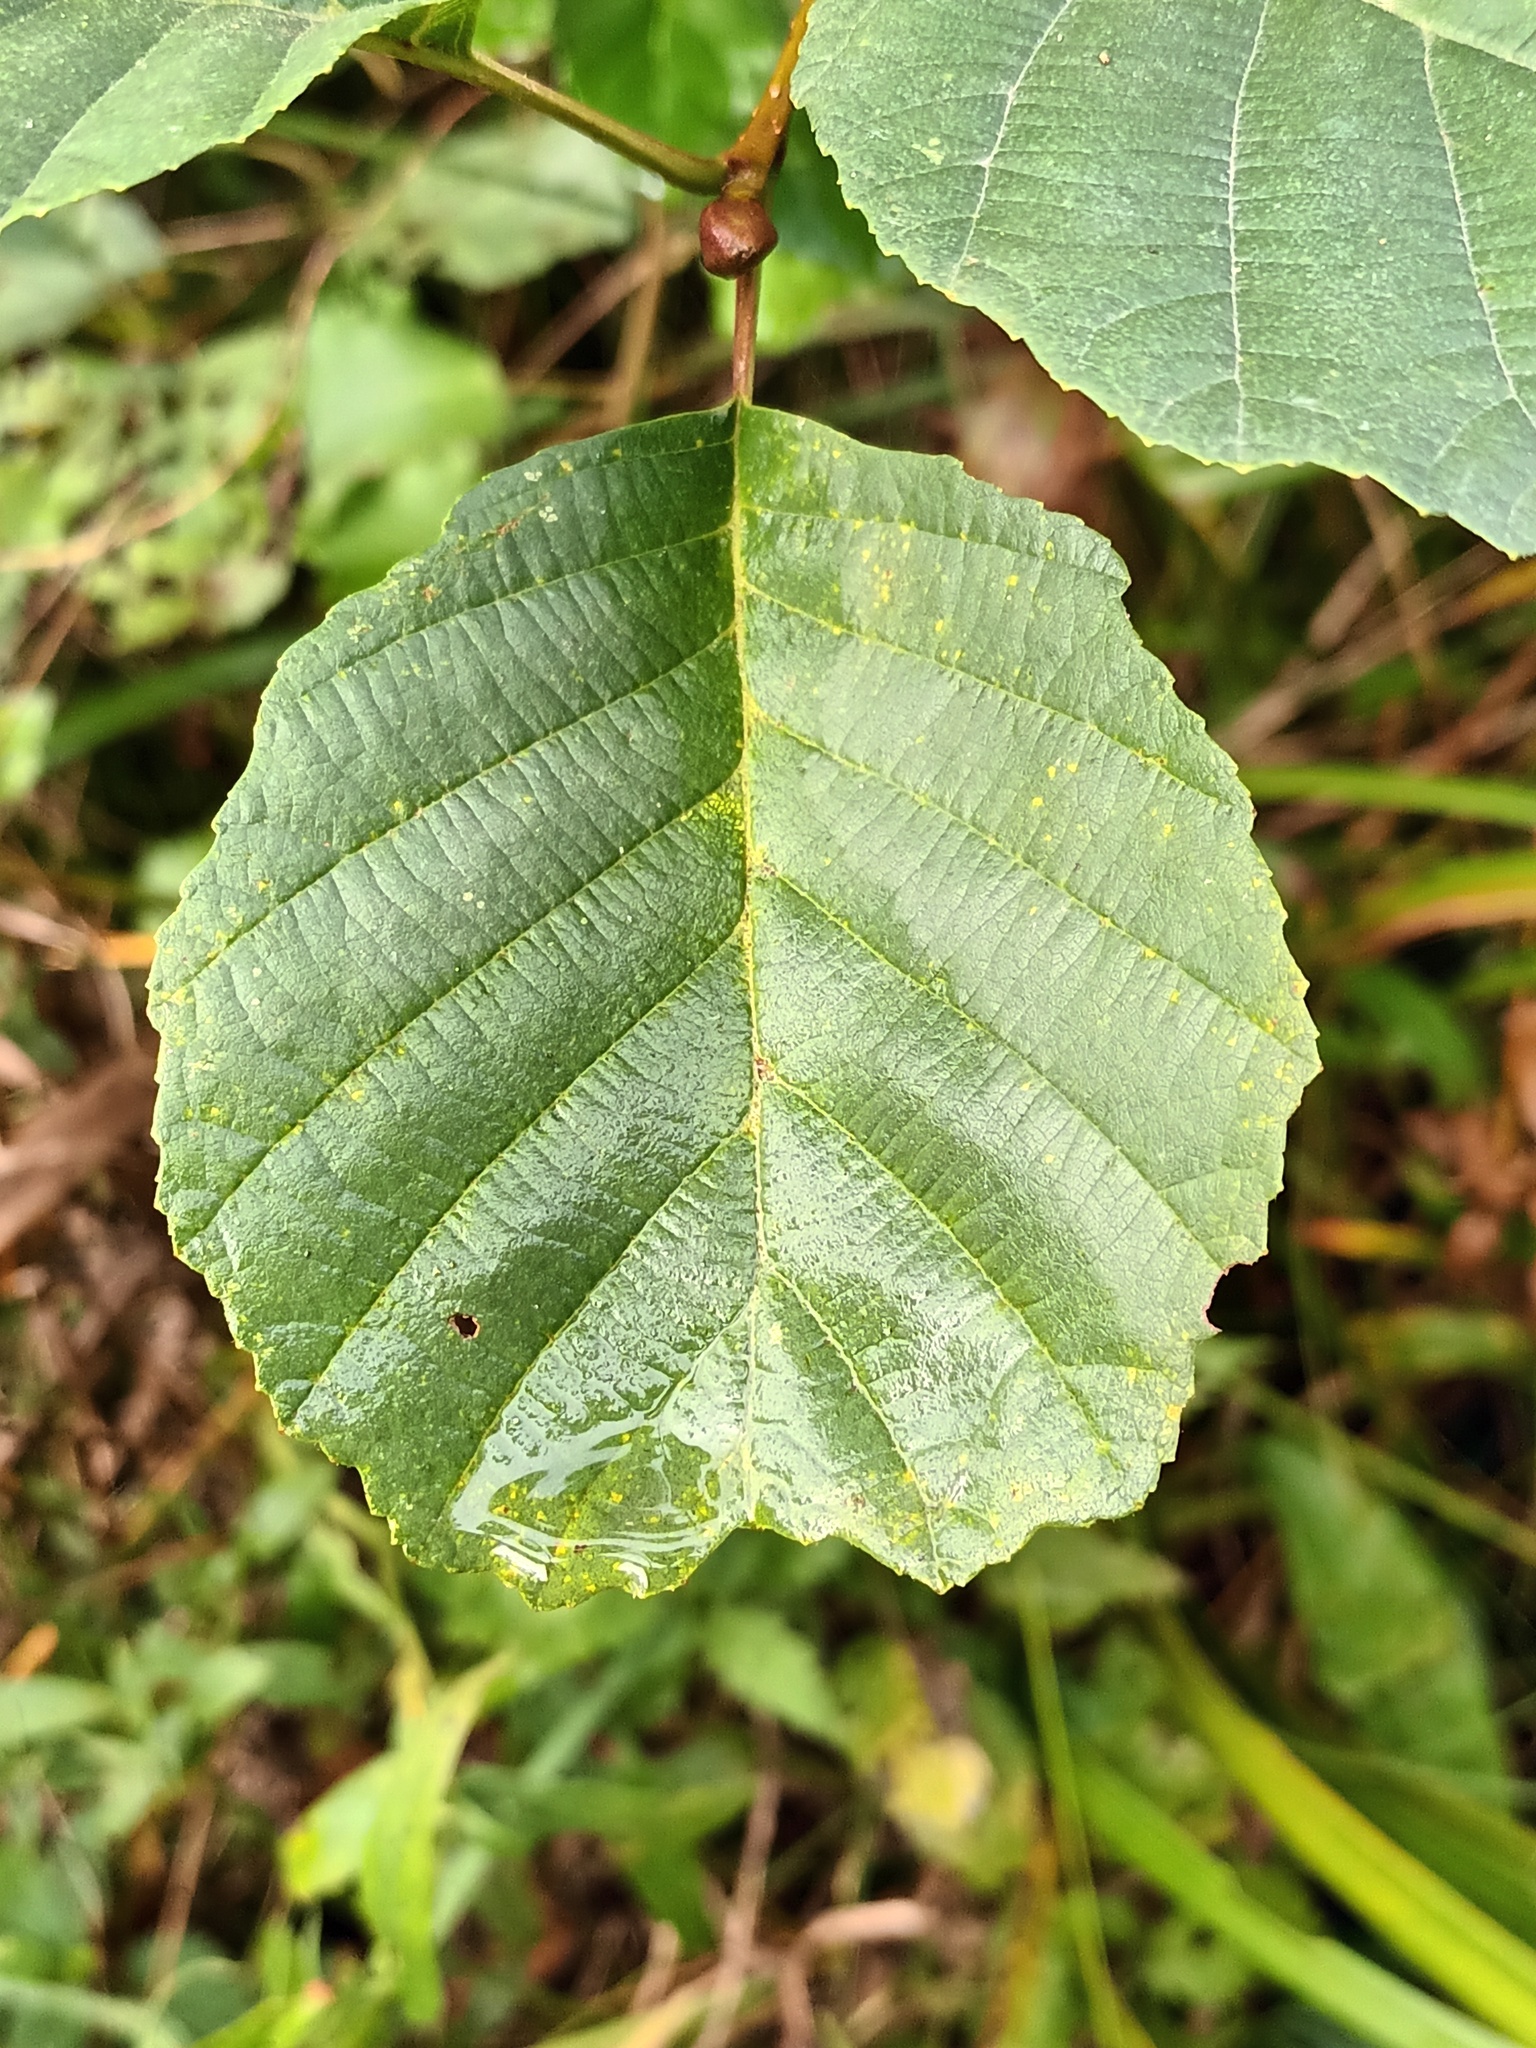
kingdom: Plantae
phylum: Tracheophyta
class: Magnoliopsida
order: Fagales
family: Betulaceae
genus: Alnus
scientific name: Alnus glutinosa
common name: Black alder
